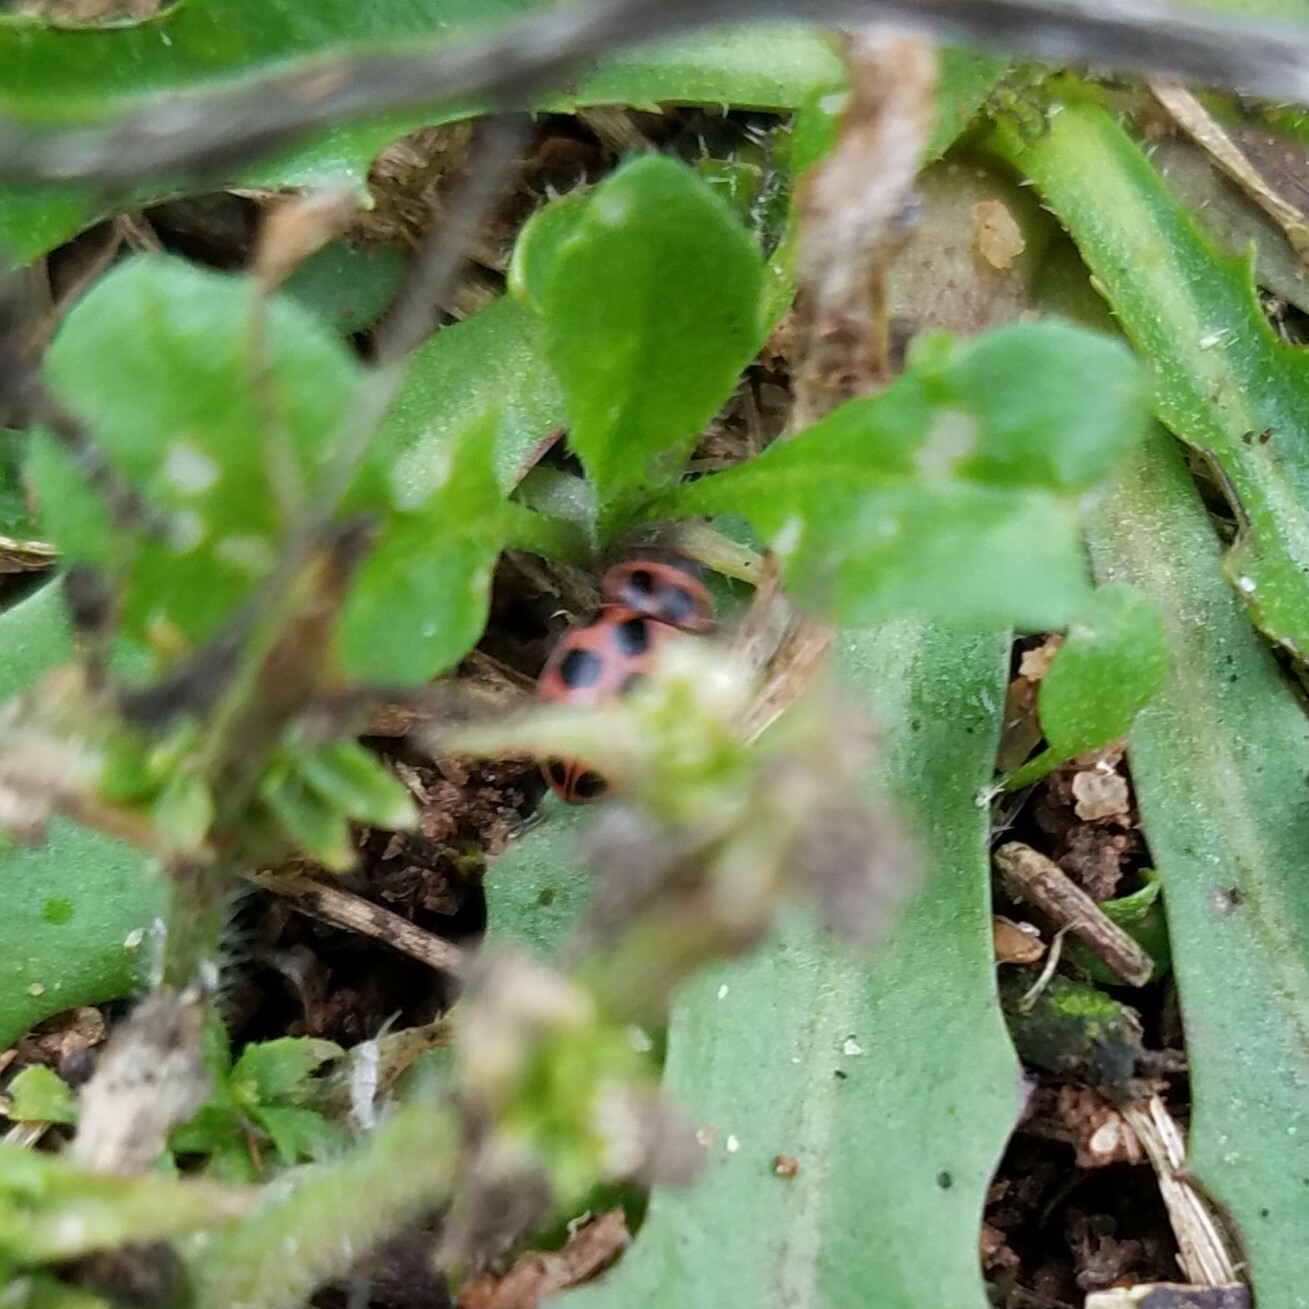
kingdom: Animalia
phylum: Arthropoda
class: Insecta
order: Coleoptera
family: Coccinellidae
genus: Coleomegilla
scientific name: Coleomegilla maculata
